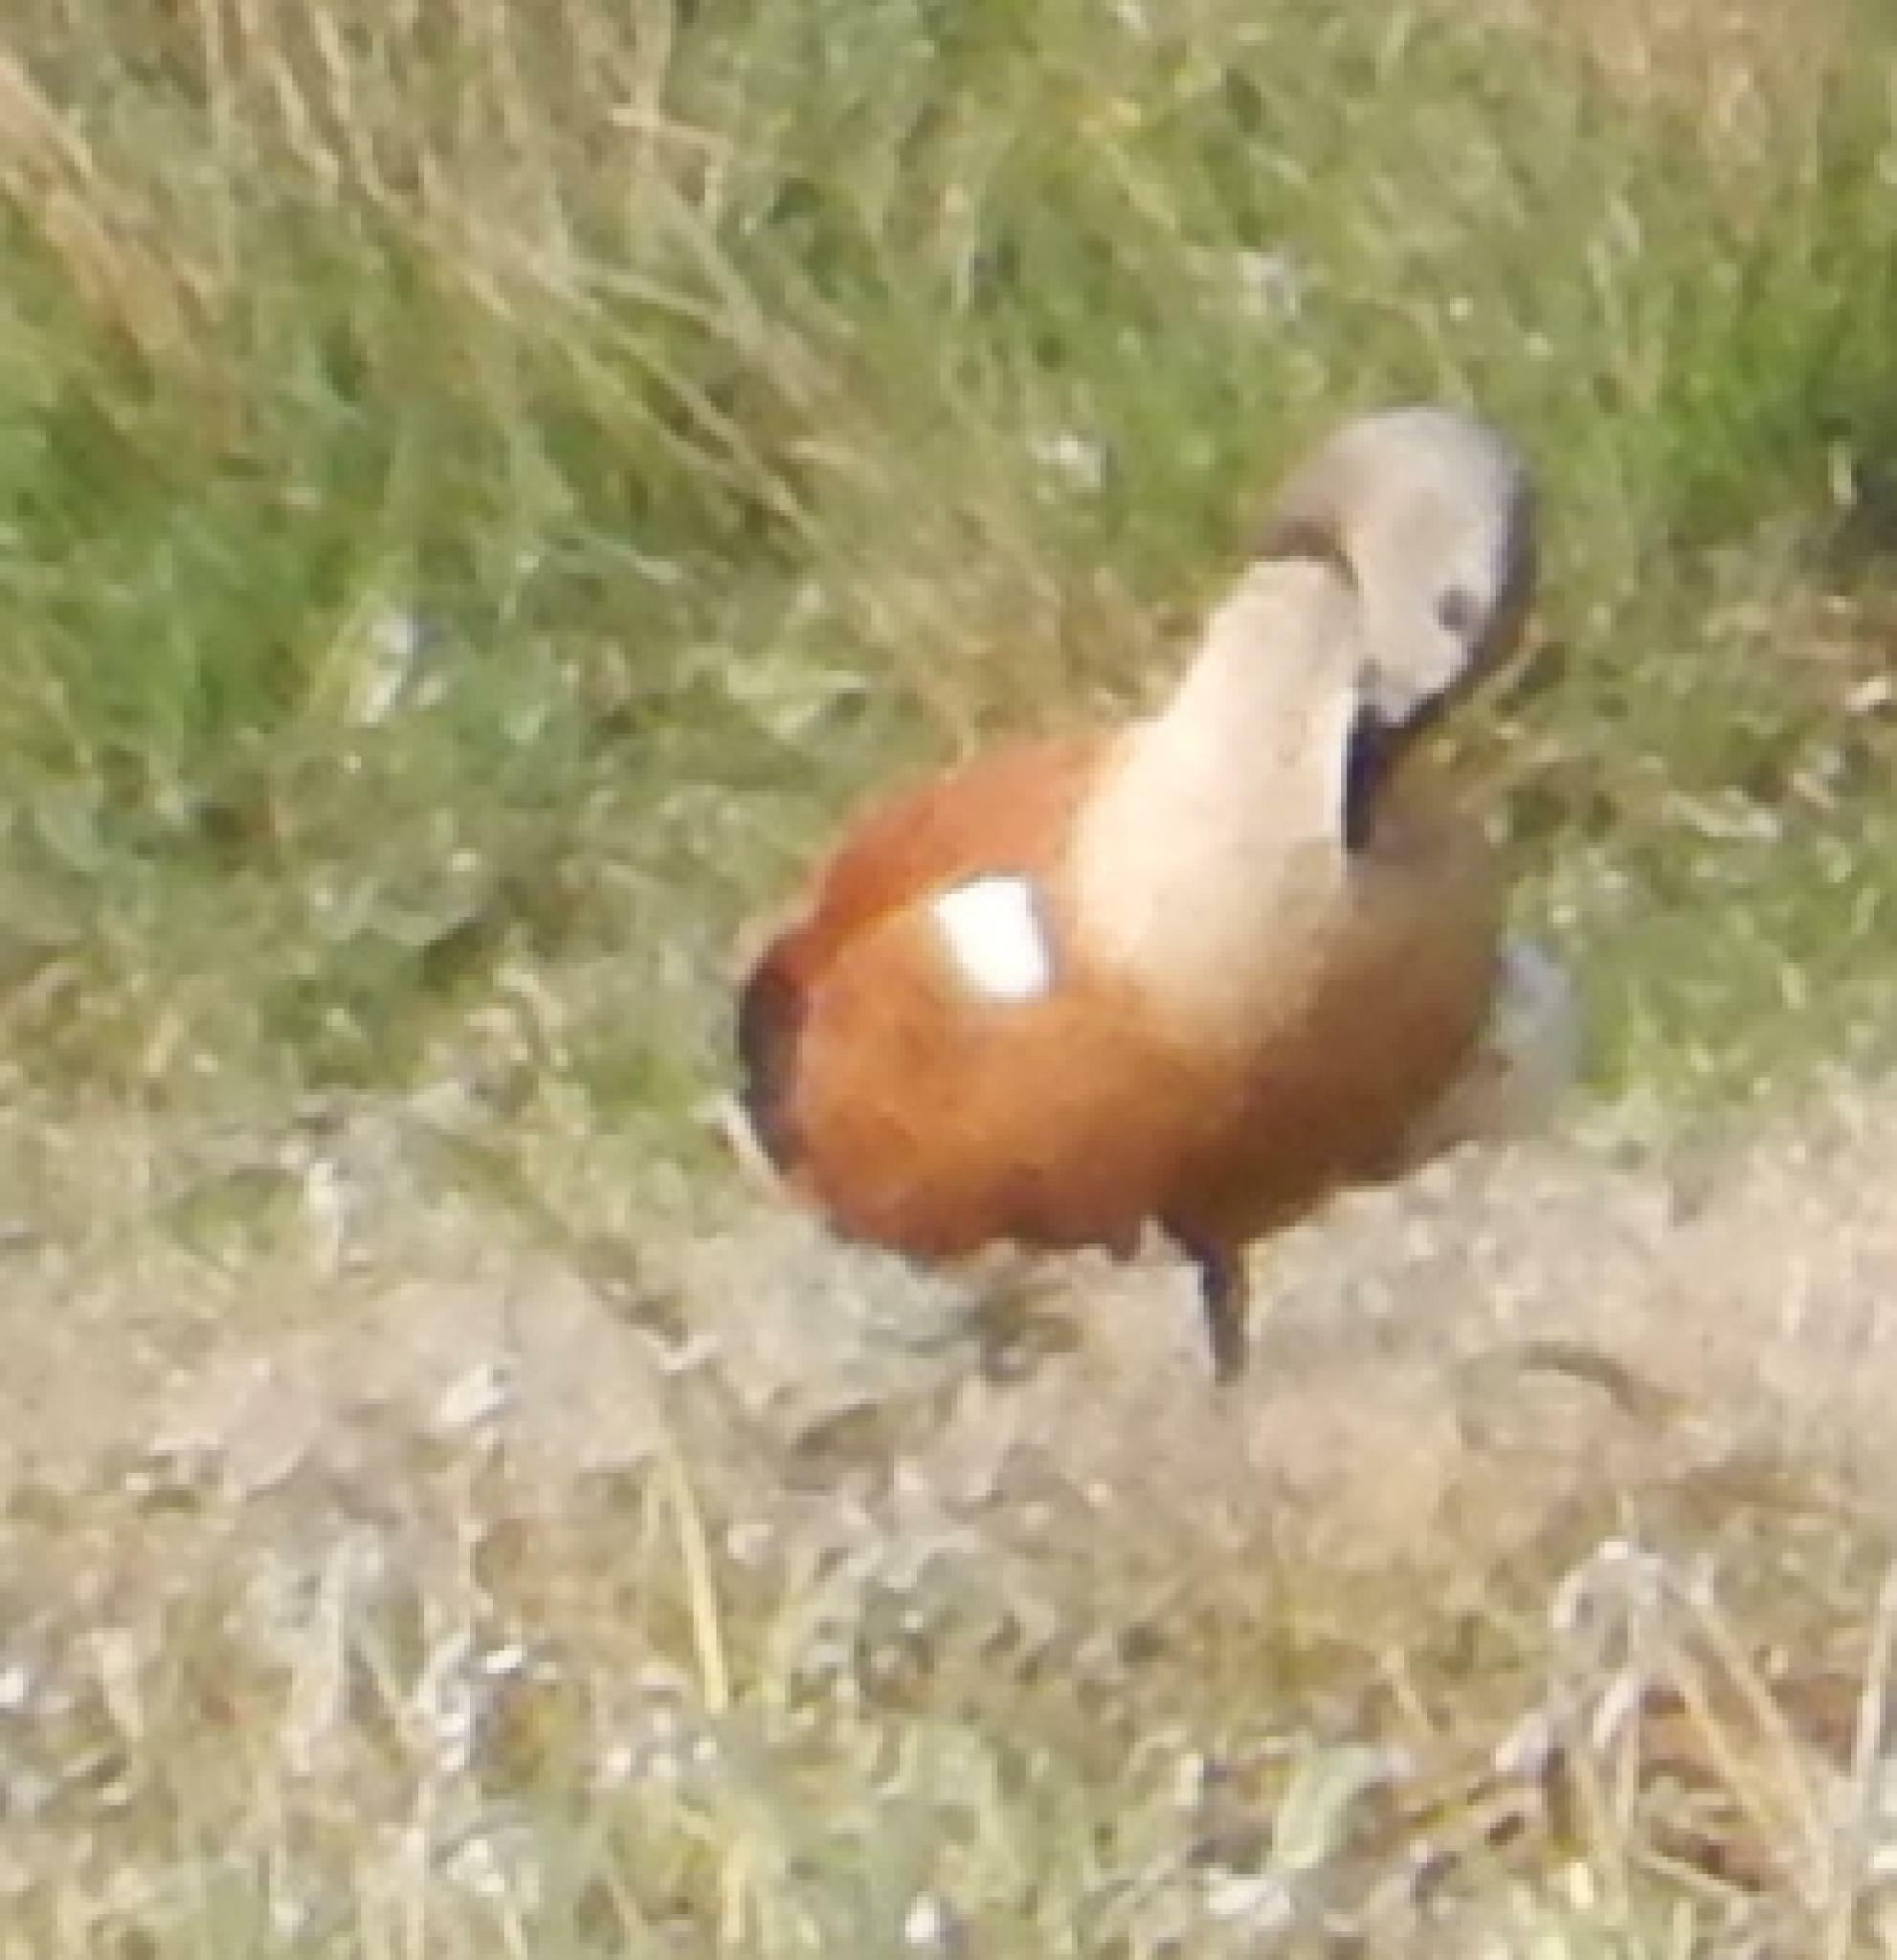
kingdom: Animalia
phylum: Chordata
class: Aves
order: Anseriformes
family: Anatidae
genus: Tadorna
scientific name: Tadorna cana
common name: South african shelduck
